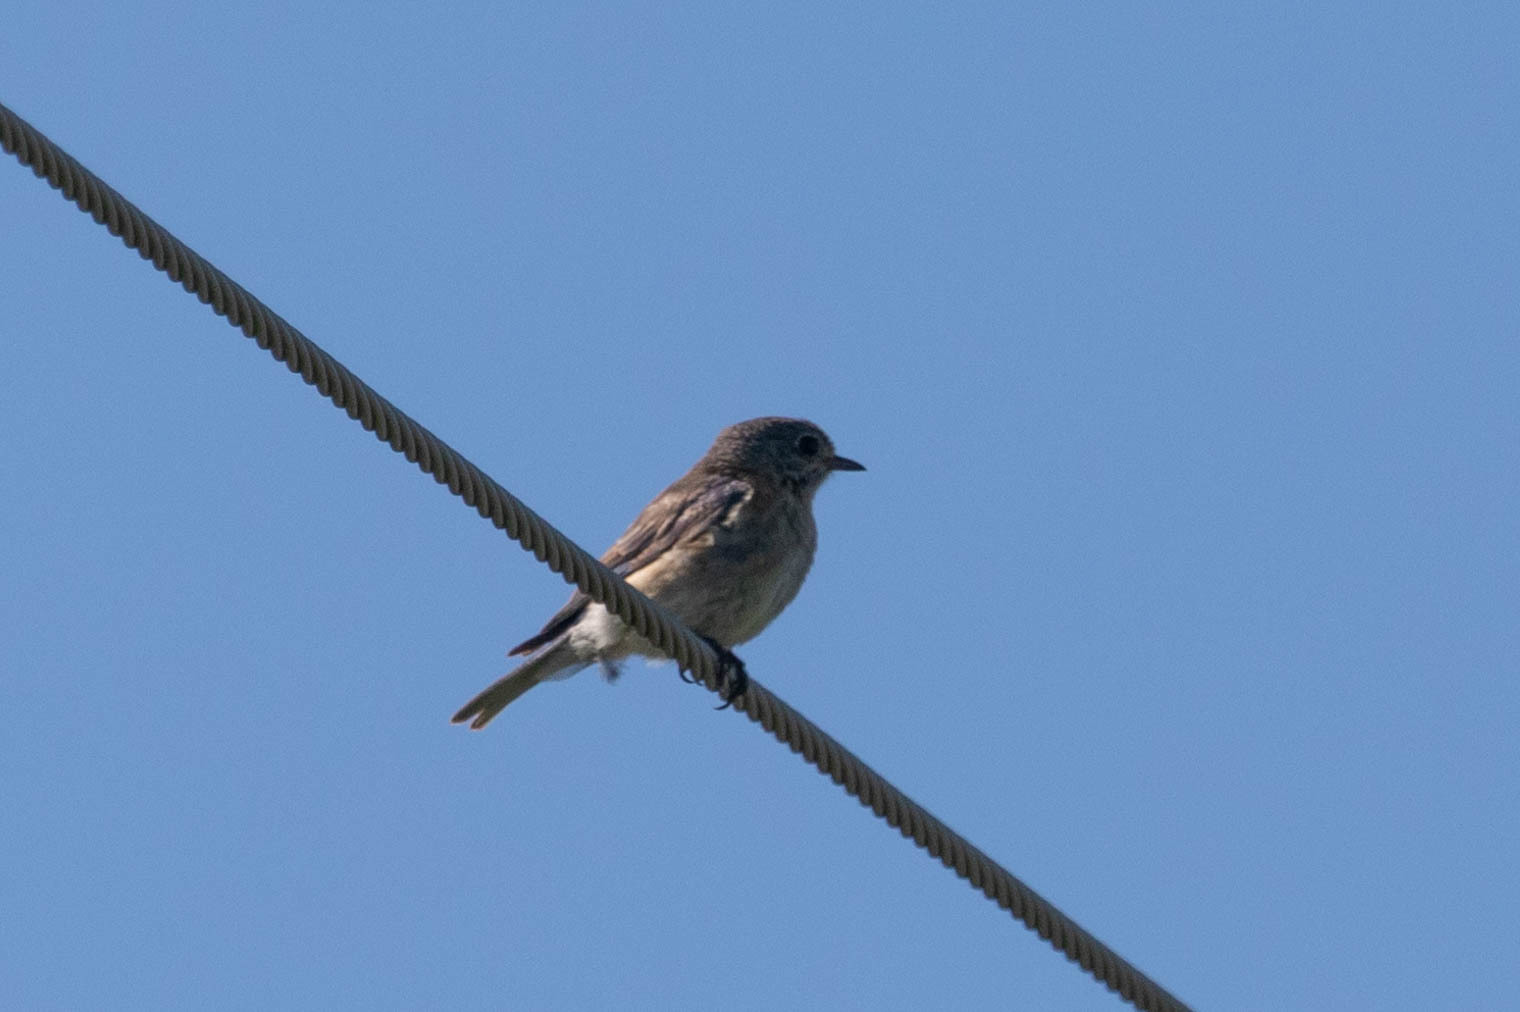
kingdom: Animalia
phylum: Chordata
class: Aves
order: Passeriformes
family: Turdidae
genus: Sialia
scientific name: Sialia sialis
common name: Eastern bluebird
